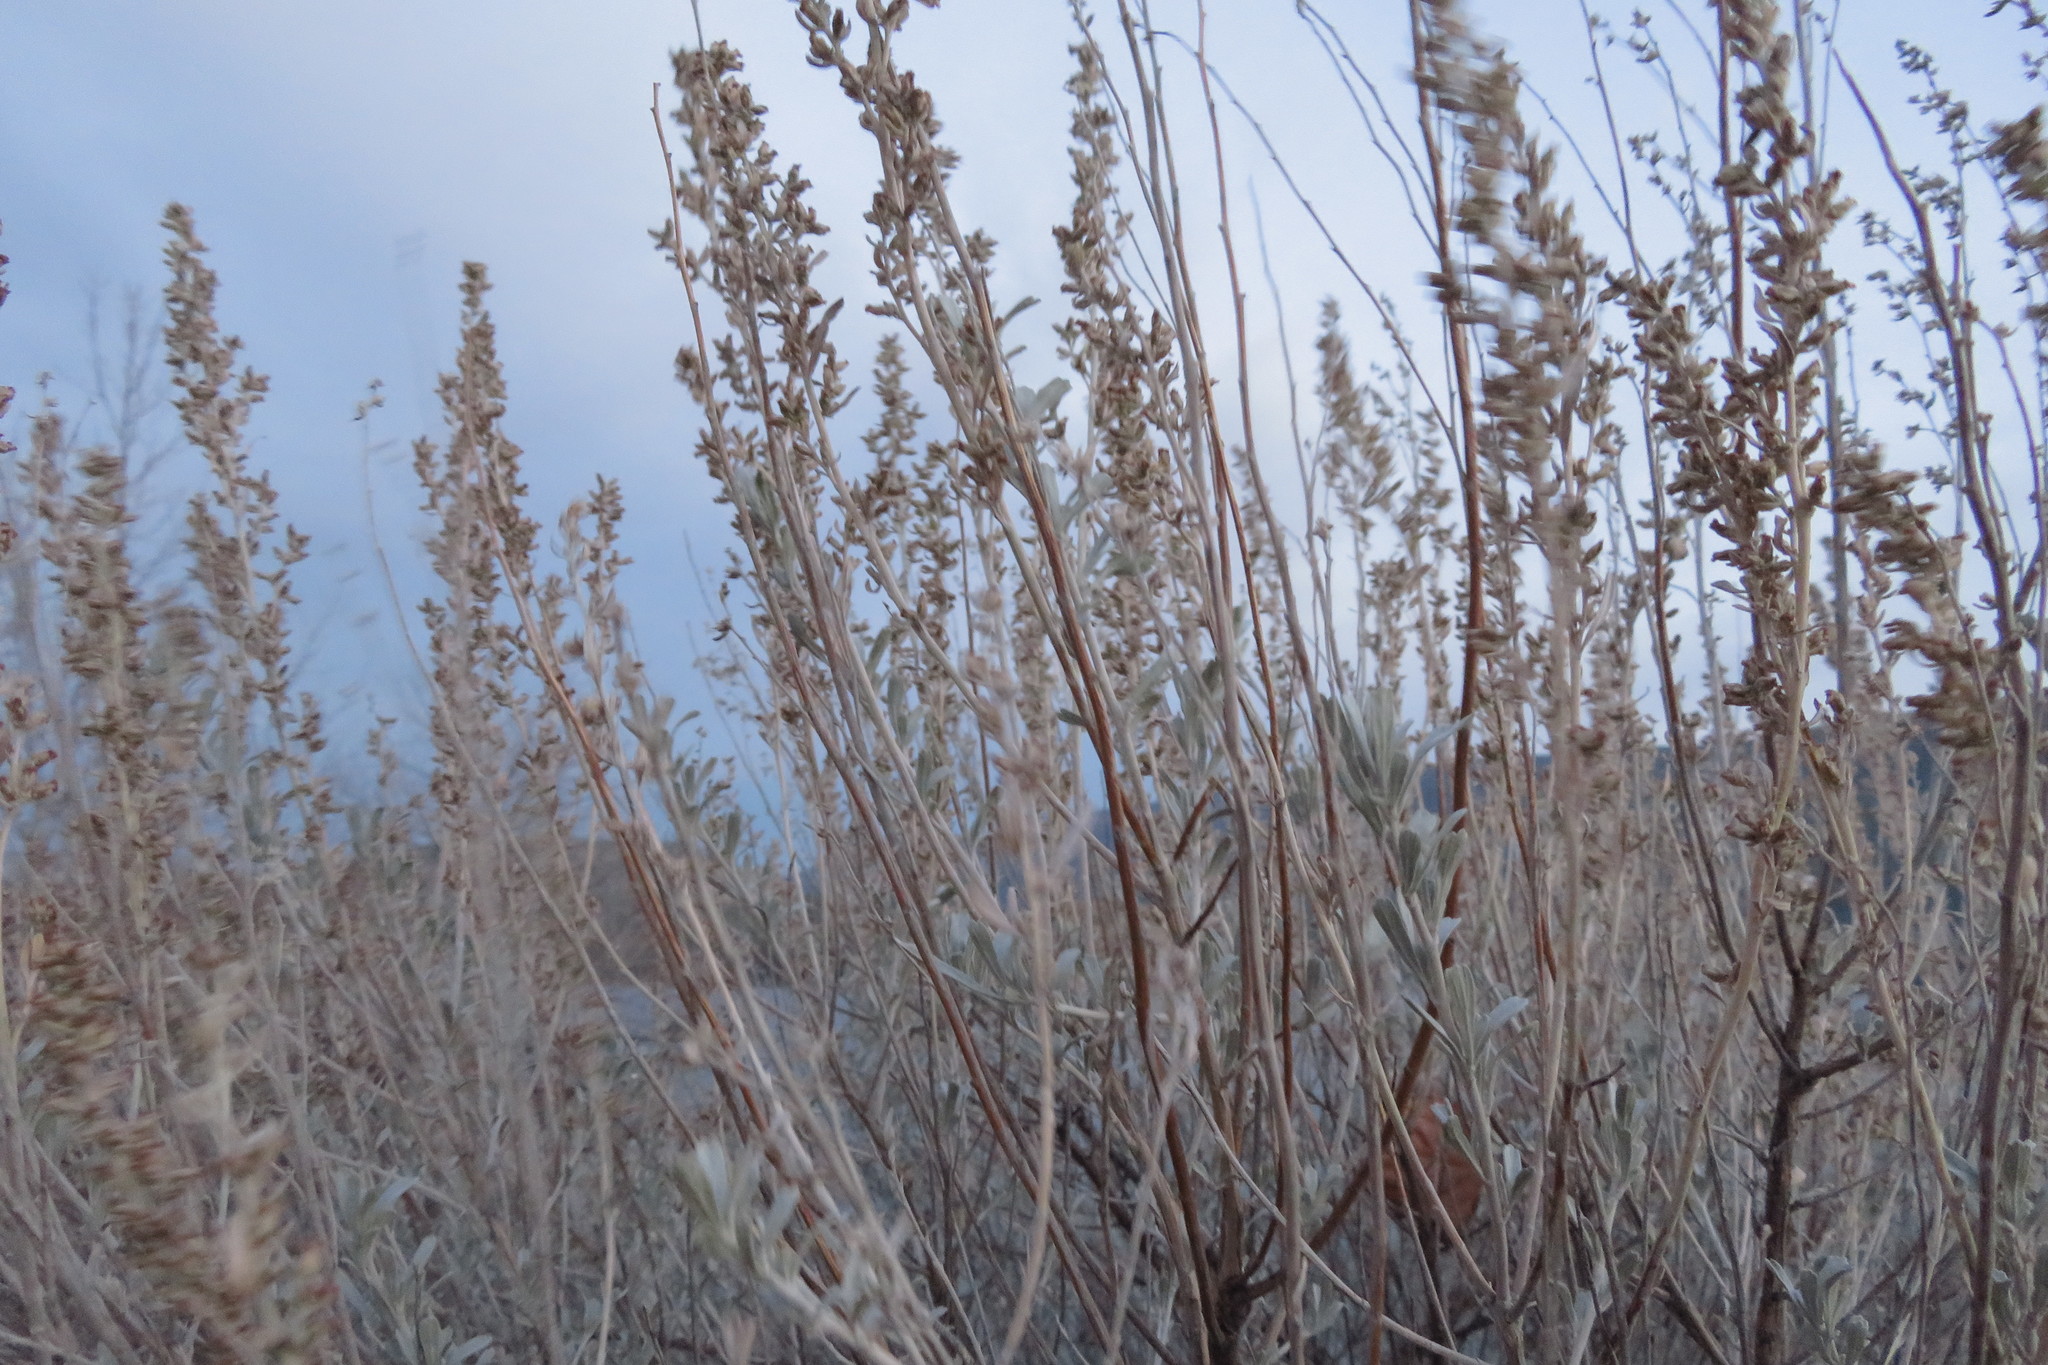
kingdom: Plantae
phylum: Tracheophyta
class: Magnoliopsida
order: Asterales
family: Asteraceae
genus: Artemisia
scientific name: Artemisia tridentata
